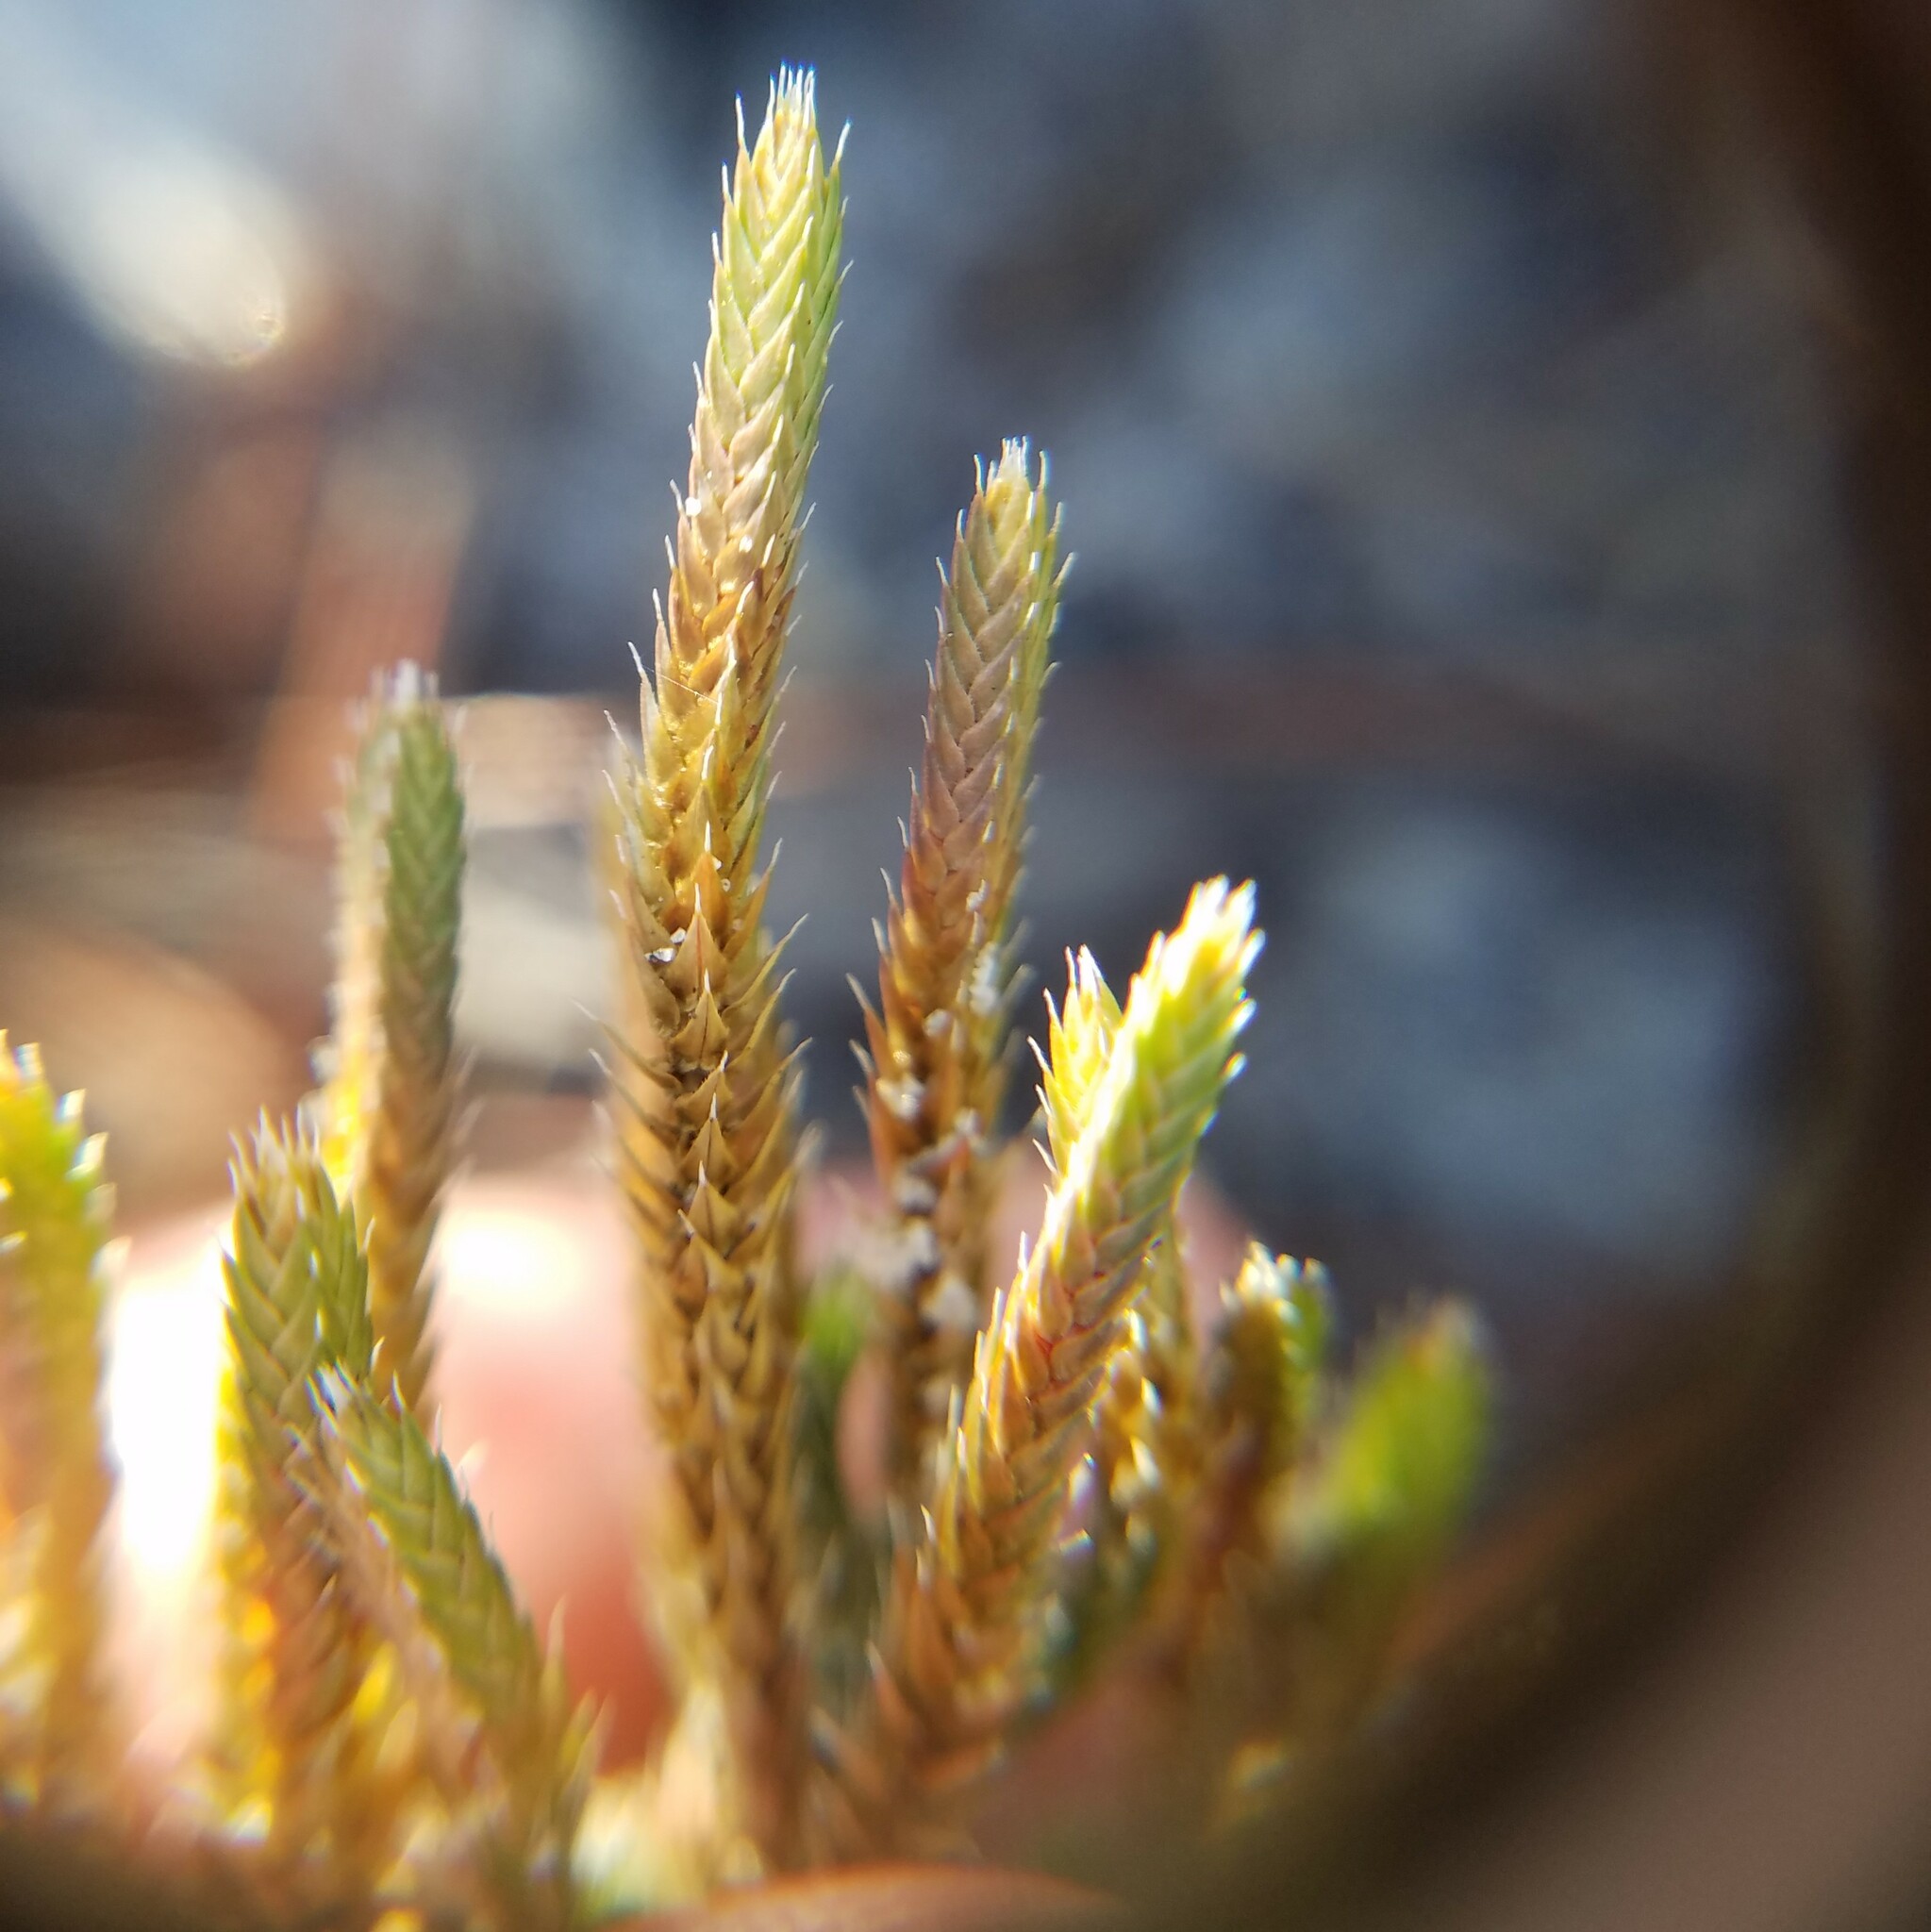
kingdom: Plantae
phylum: Tracheophyta
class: Lycopodiopsida
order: Selaginellales
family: Selaginellaceae
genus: Selaginella
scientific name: Selaginella arenicola
